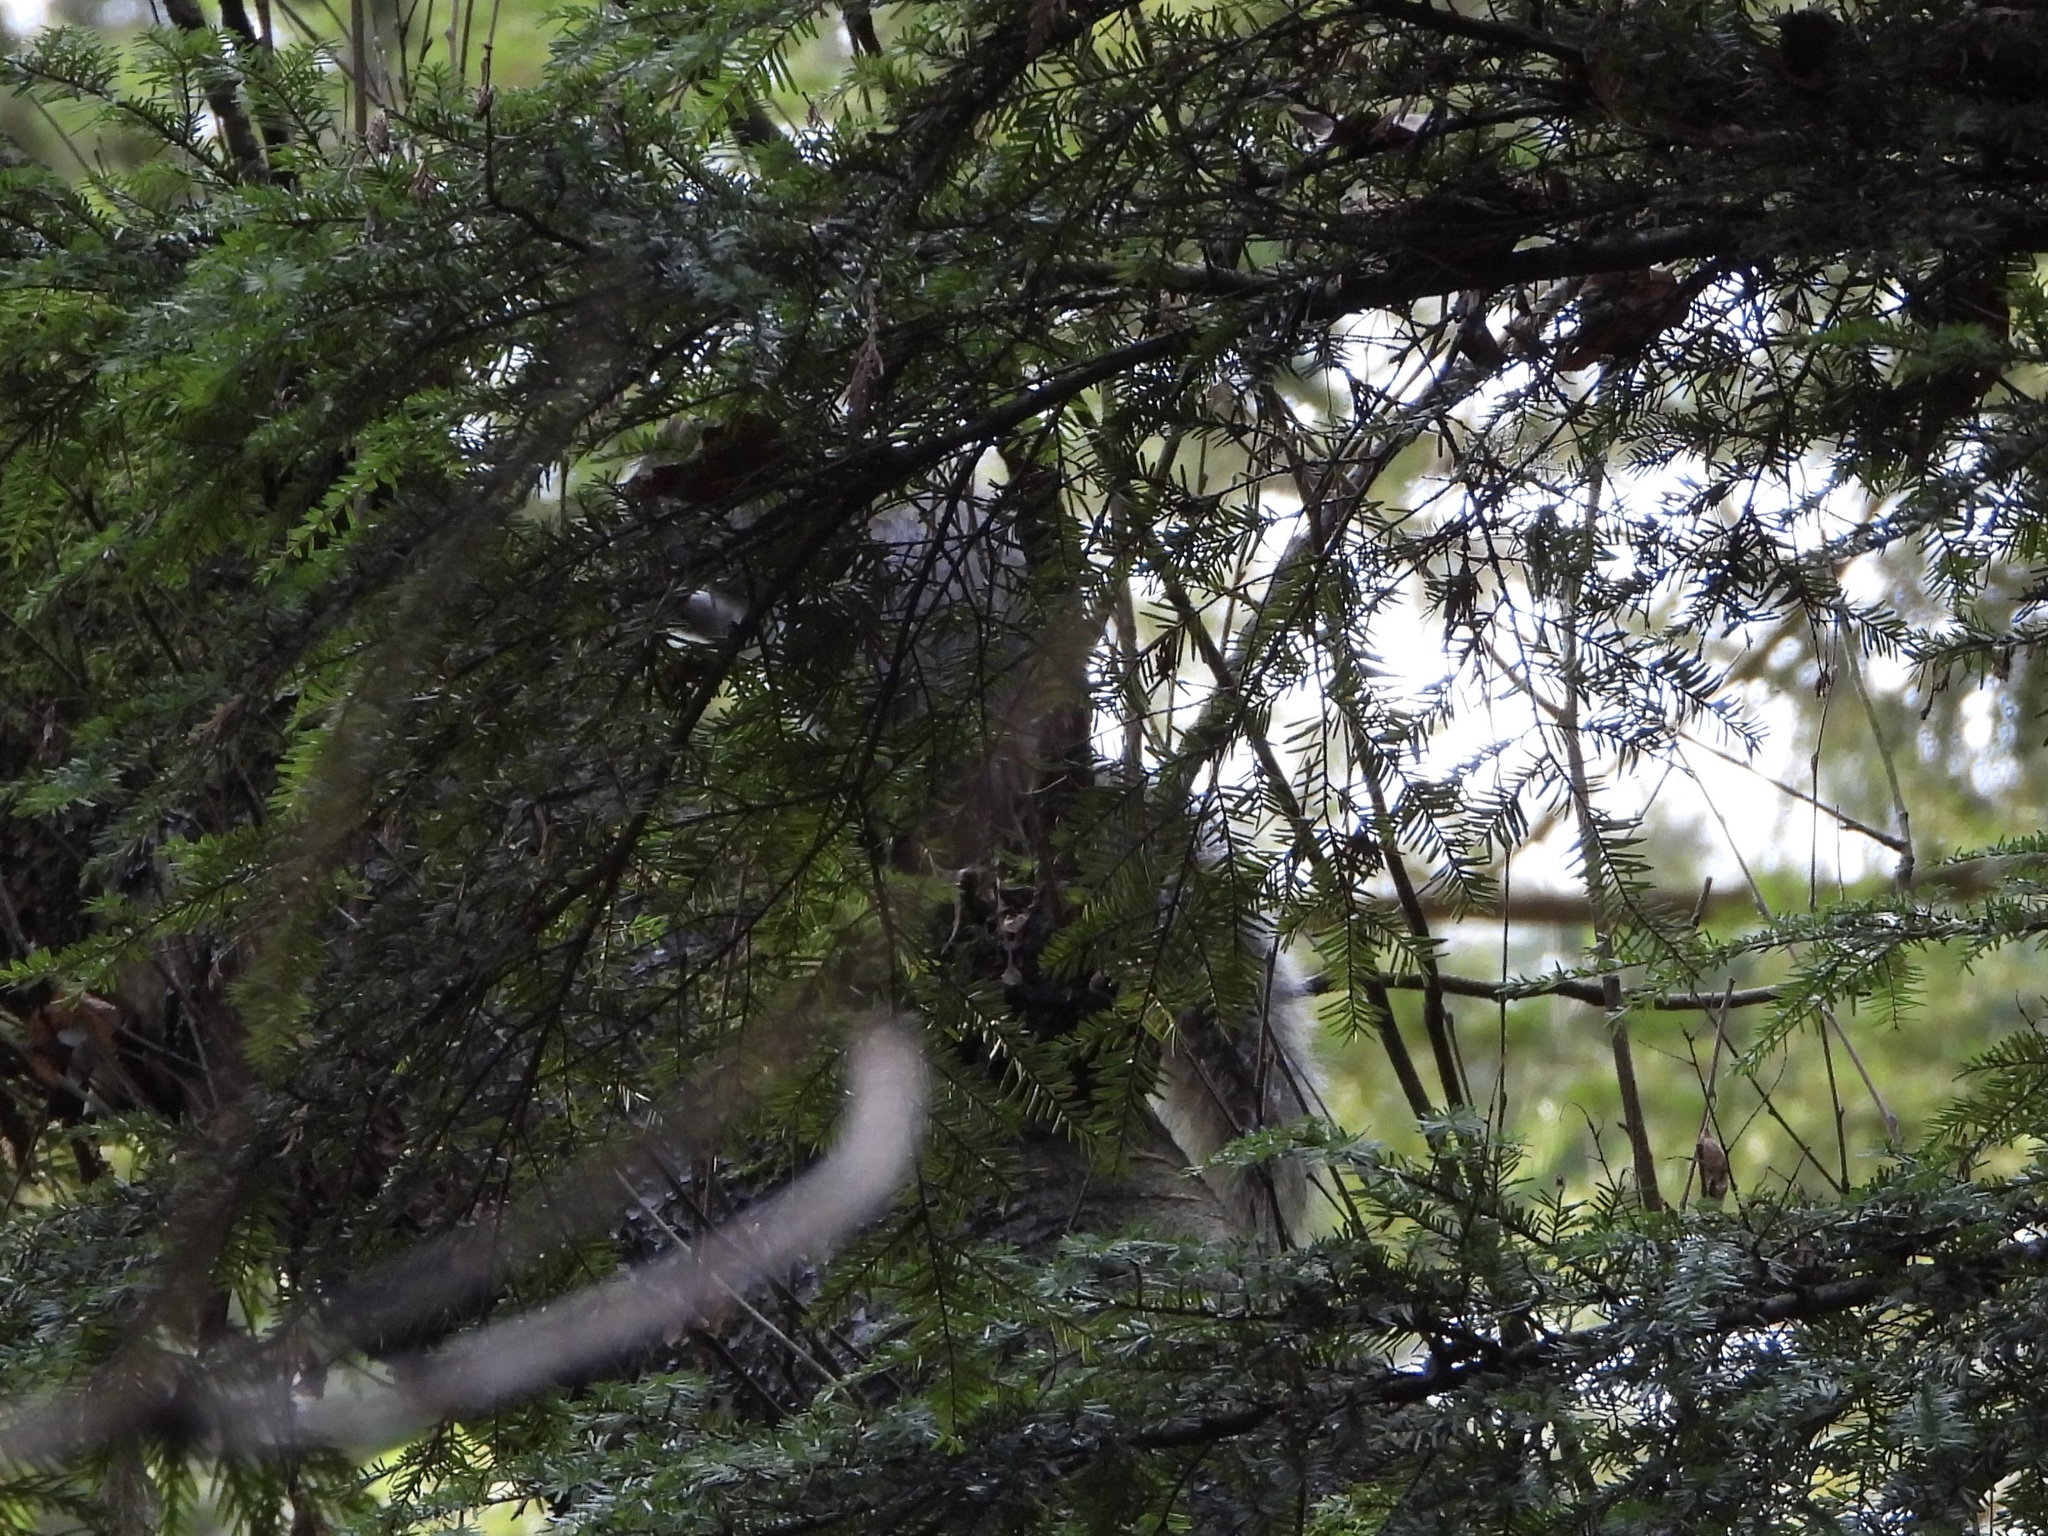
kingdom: Animalia
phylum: Chordata
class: Mammalia
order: Rodentia
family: Sciuridae
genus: Sciurus
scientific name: Sciurus carolinensis
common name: Eastern gray squirrel
